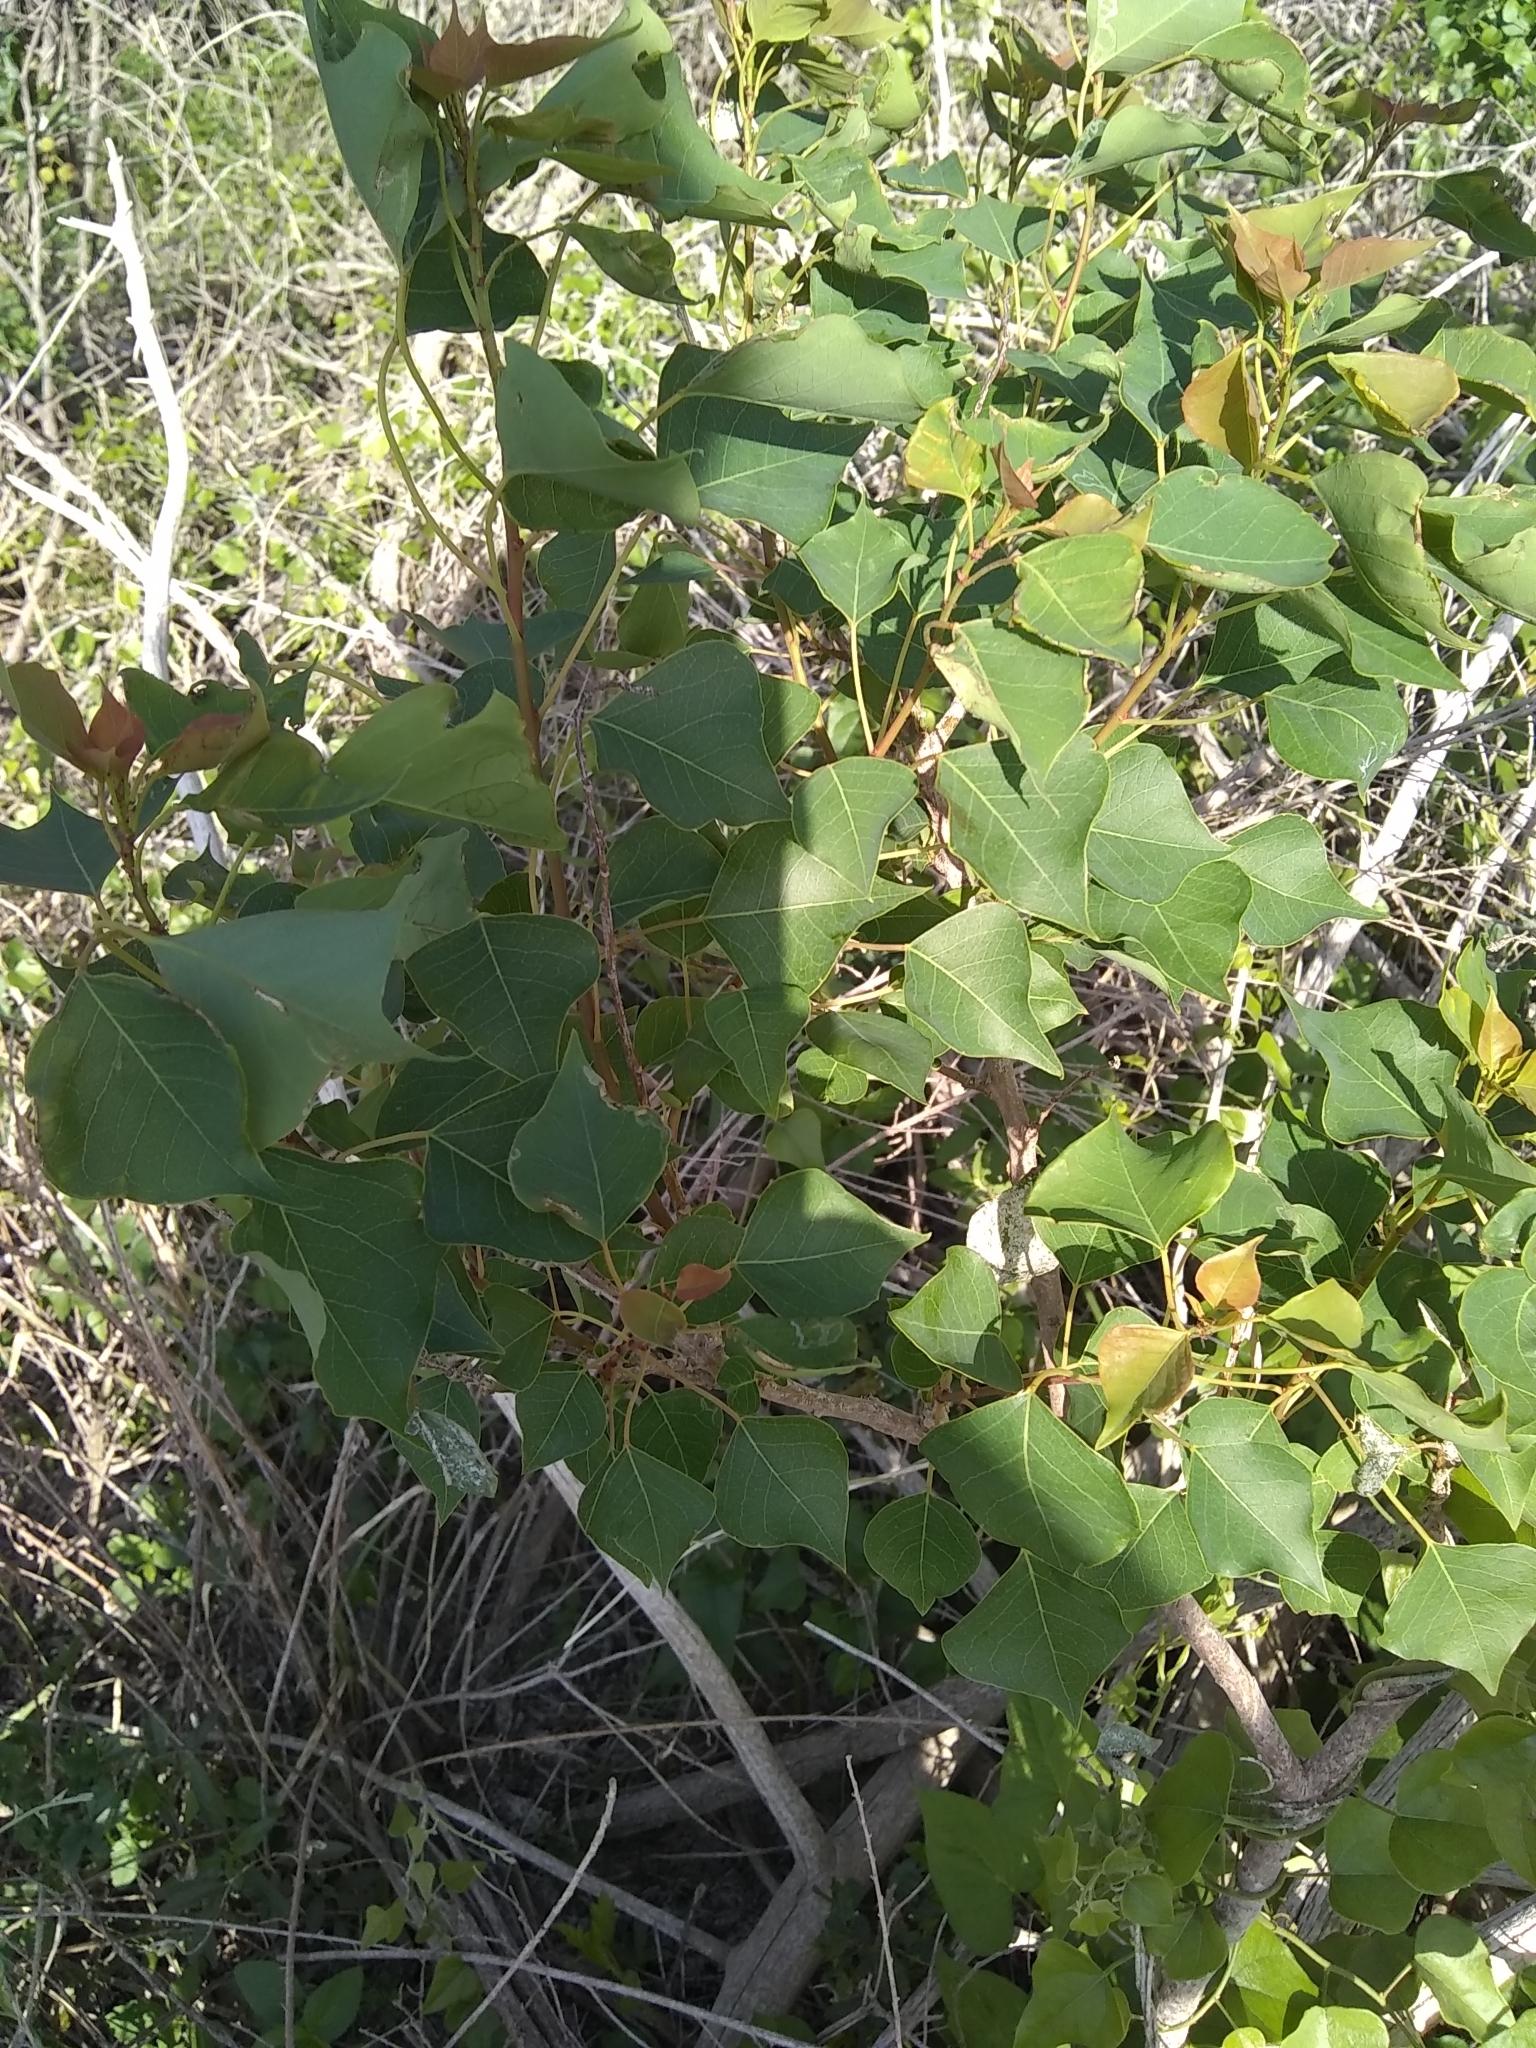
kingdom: Plantae
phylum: Tracheophyta
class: Magnoliopsida
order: Malpighiales
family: Euphorbiaceae
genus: Triadica
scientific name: Triadica sebifera
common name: Chinese tallow
